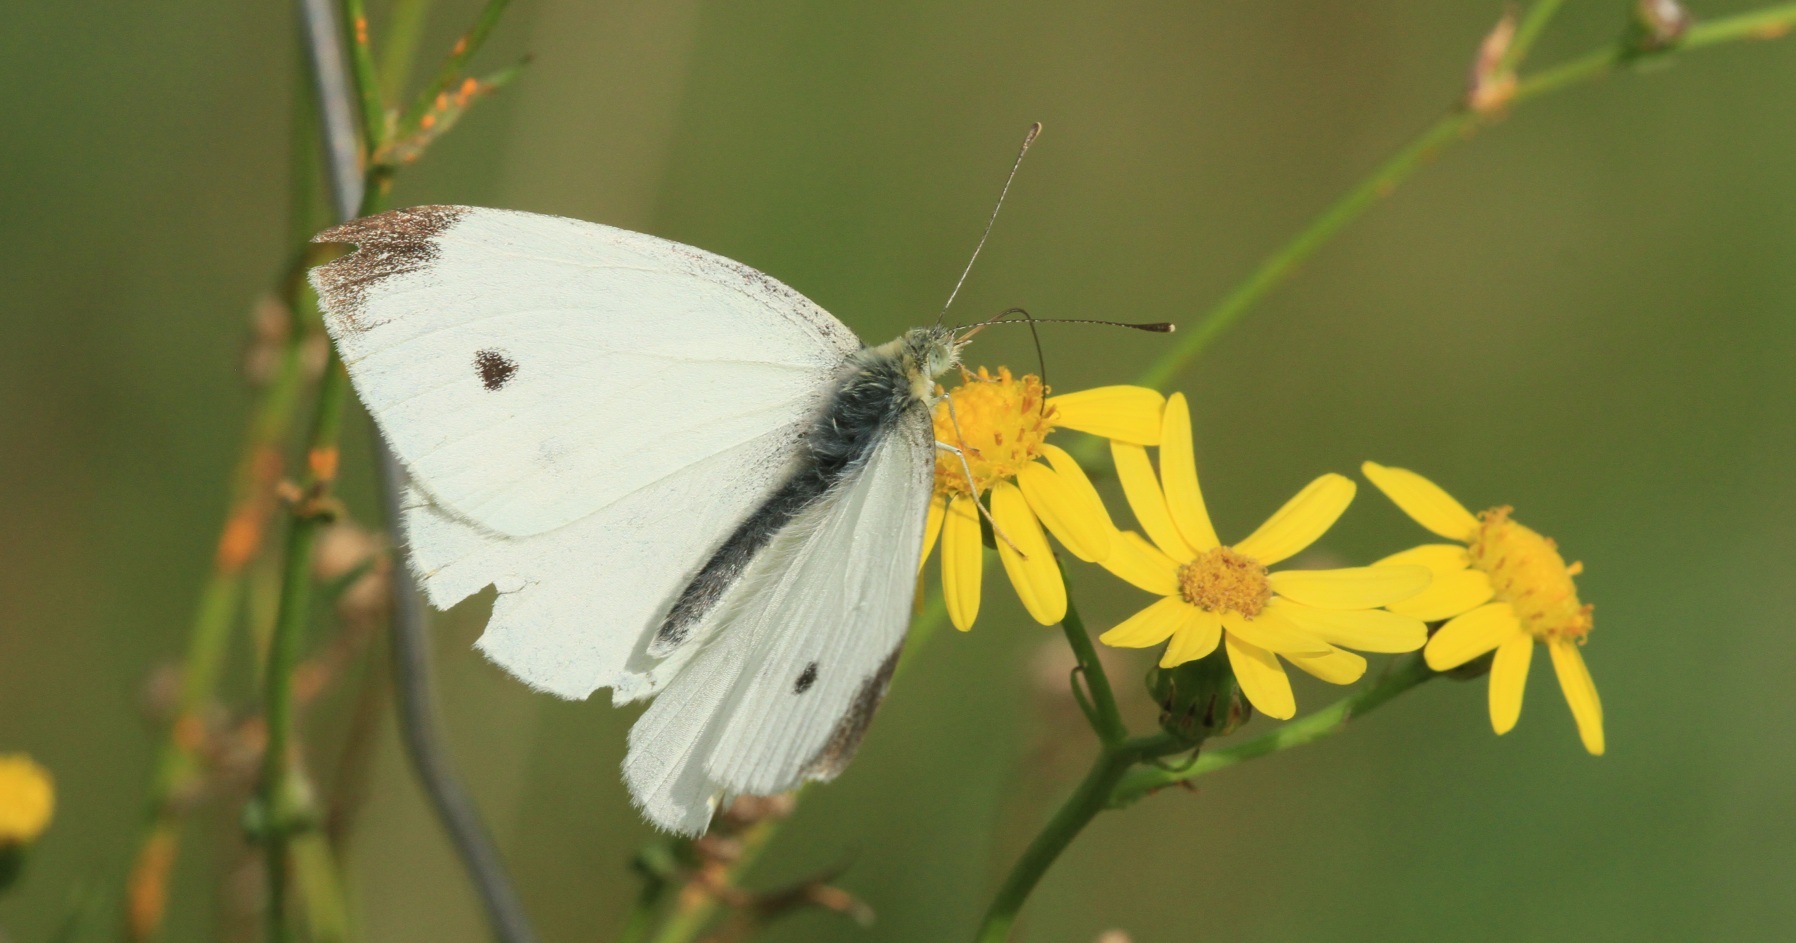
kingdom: Animalia
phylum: Arthropoda
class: Insecta
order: Lepidoptera
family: Pieridae
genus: Pieris
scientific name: Pieris rapae
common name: Small white
